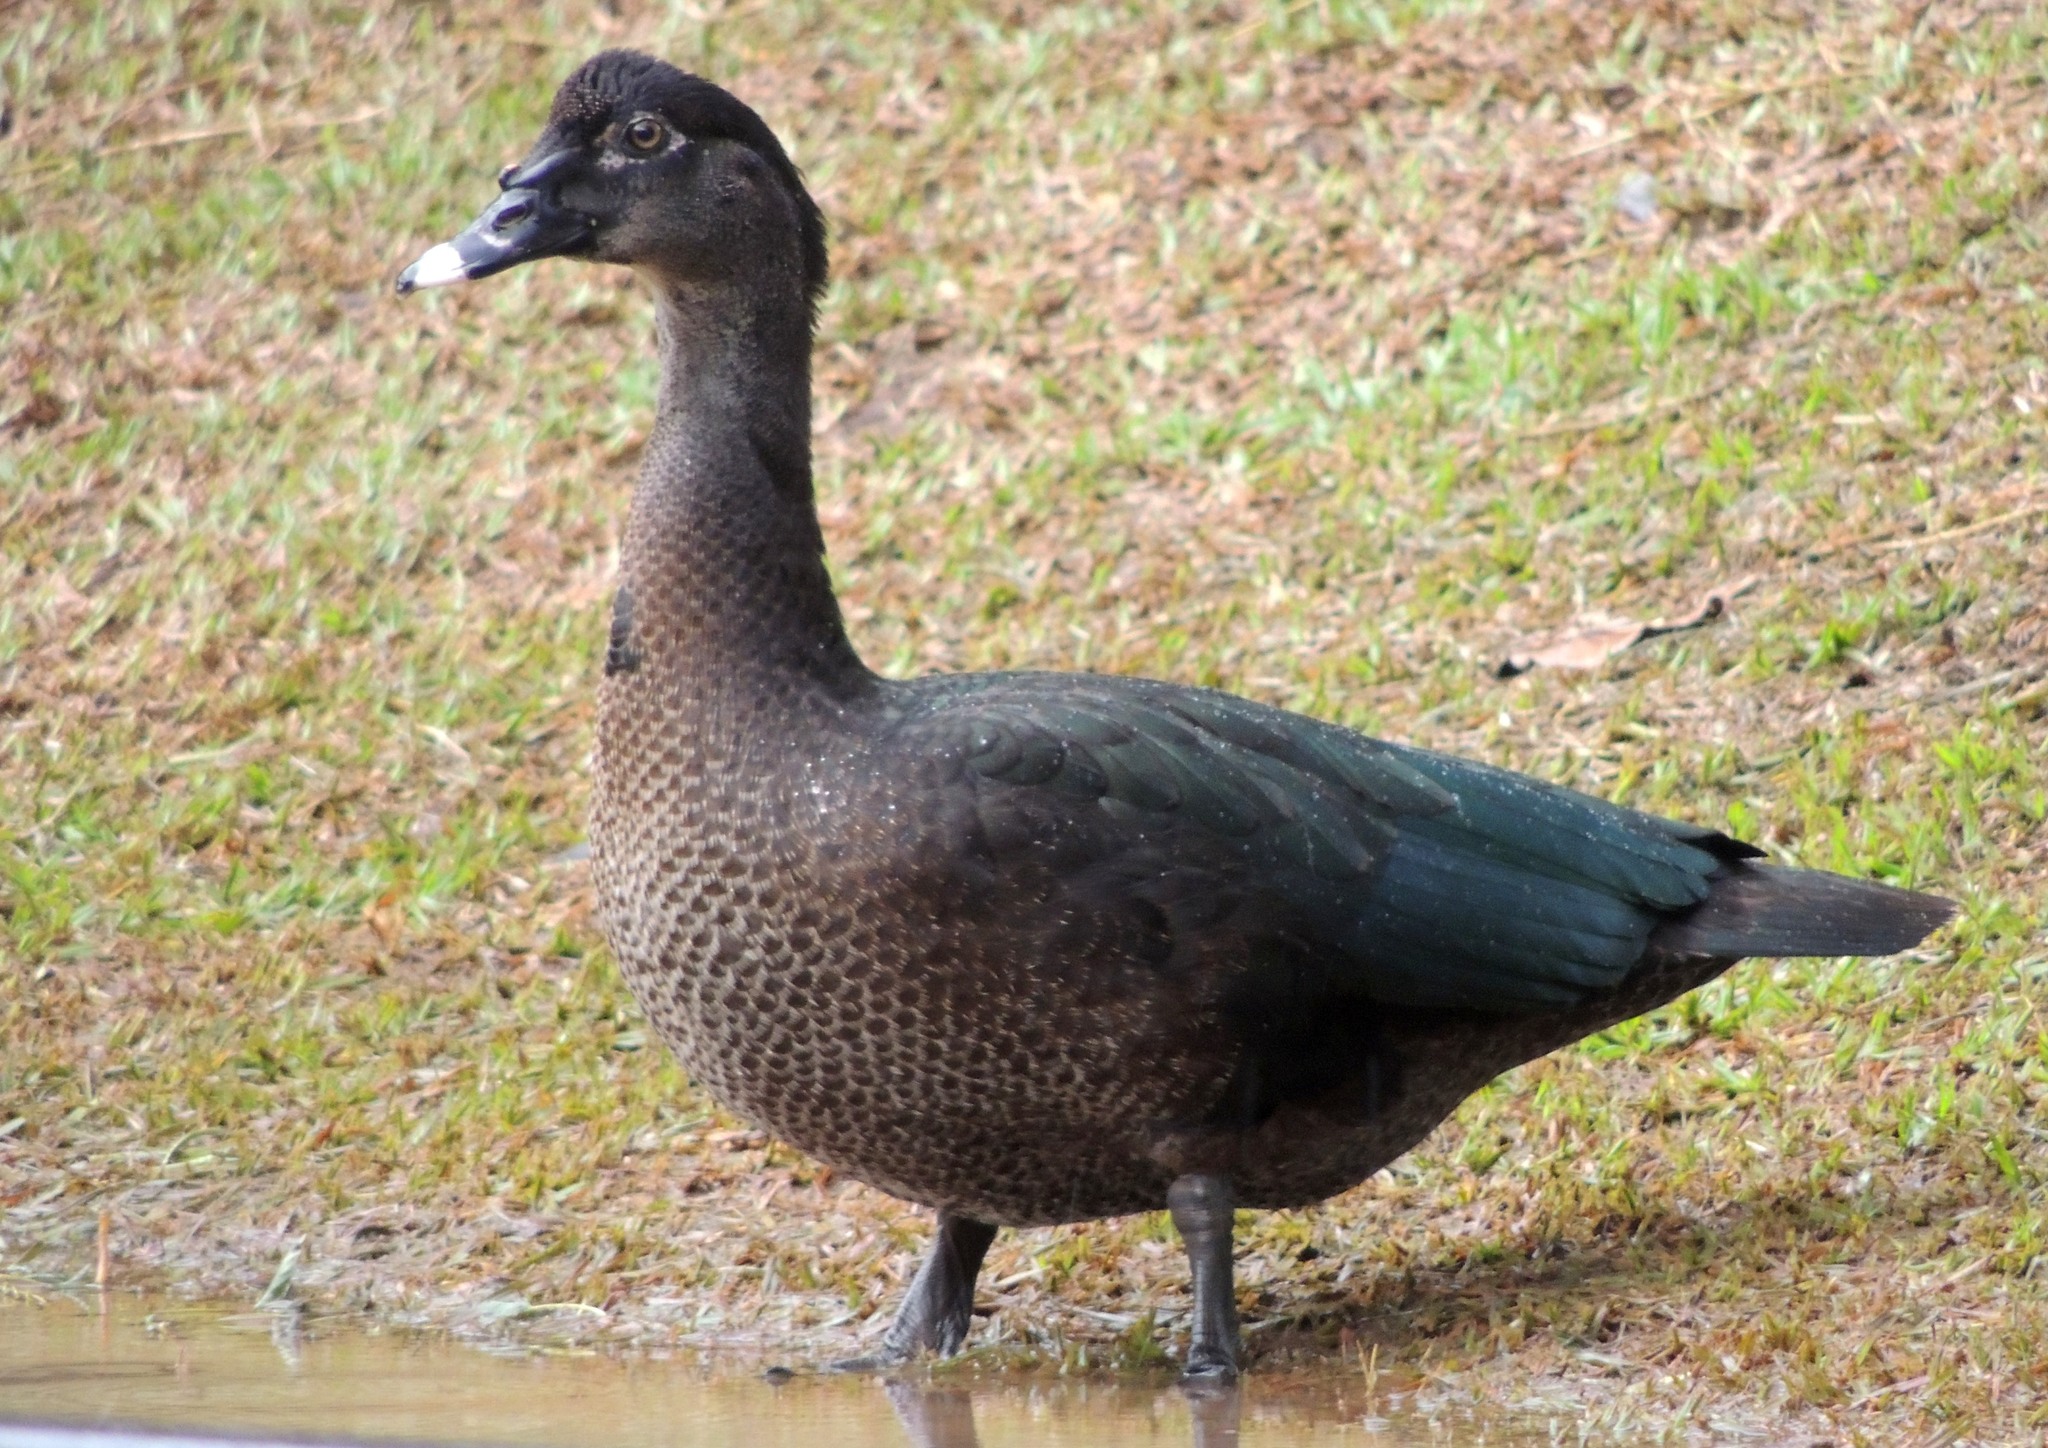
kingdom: Animalia
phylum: Chordata
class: Aves
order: Anseriformes
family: Anatidae
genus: Cairina
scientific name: Cairina moschata
